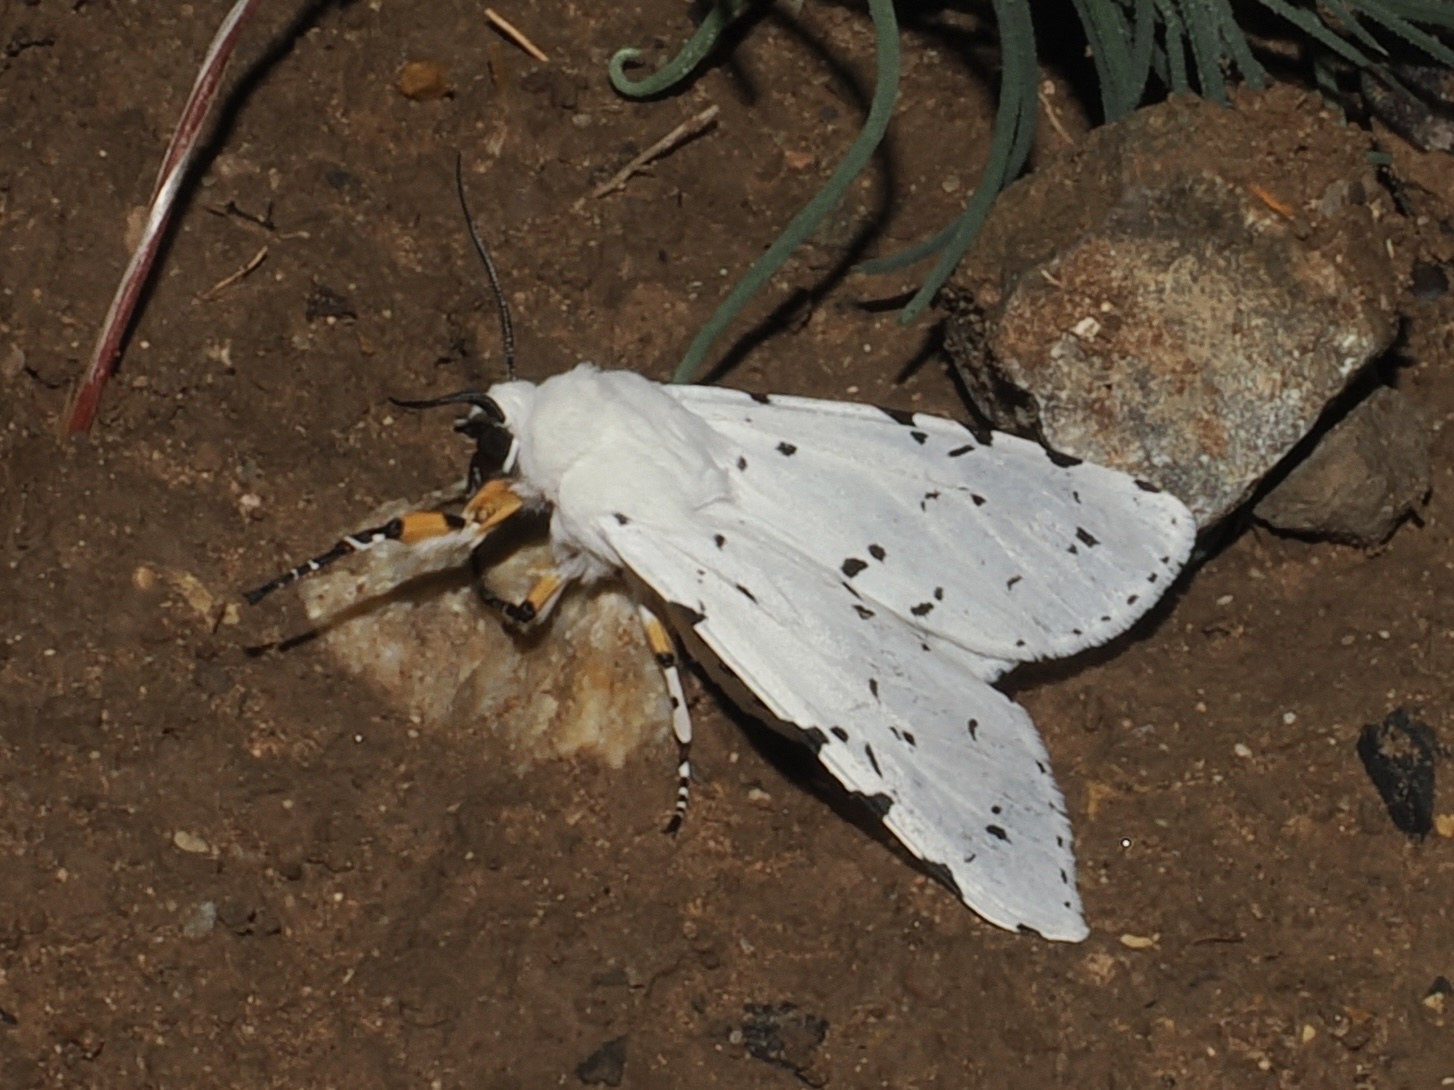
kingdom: Animalia
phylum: Arthropoda
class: Insecta
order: Lepidoptera
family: Erebidae
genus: Estigmene
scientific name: Estigmene
